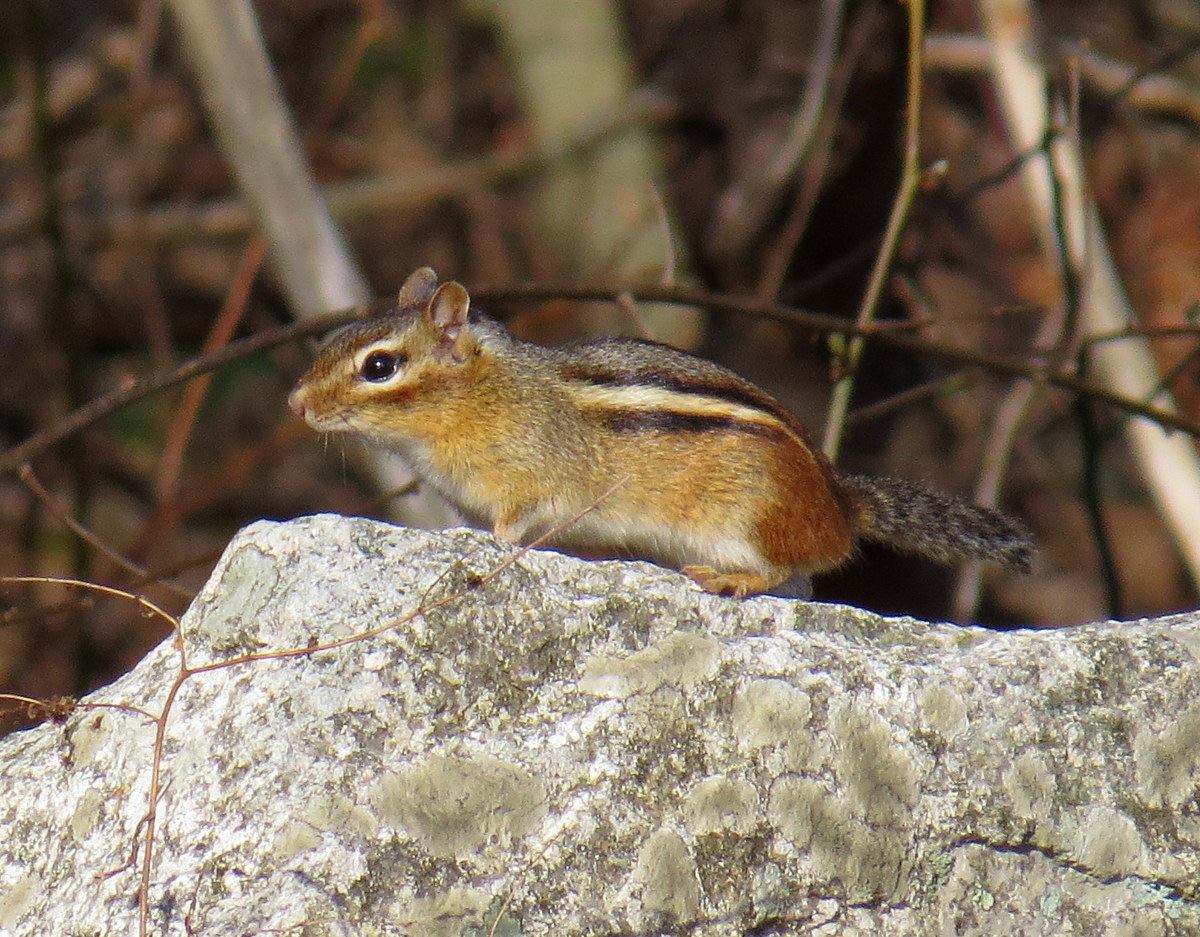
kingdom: Animalia
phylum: Chordata
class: Mammalia
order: Rodentia
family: Sciuridae
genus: Tamias
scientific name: Tamias striatus
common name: Eastern chipmunk
